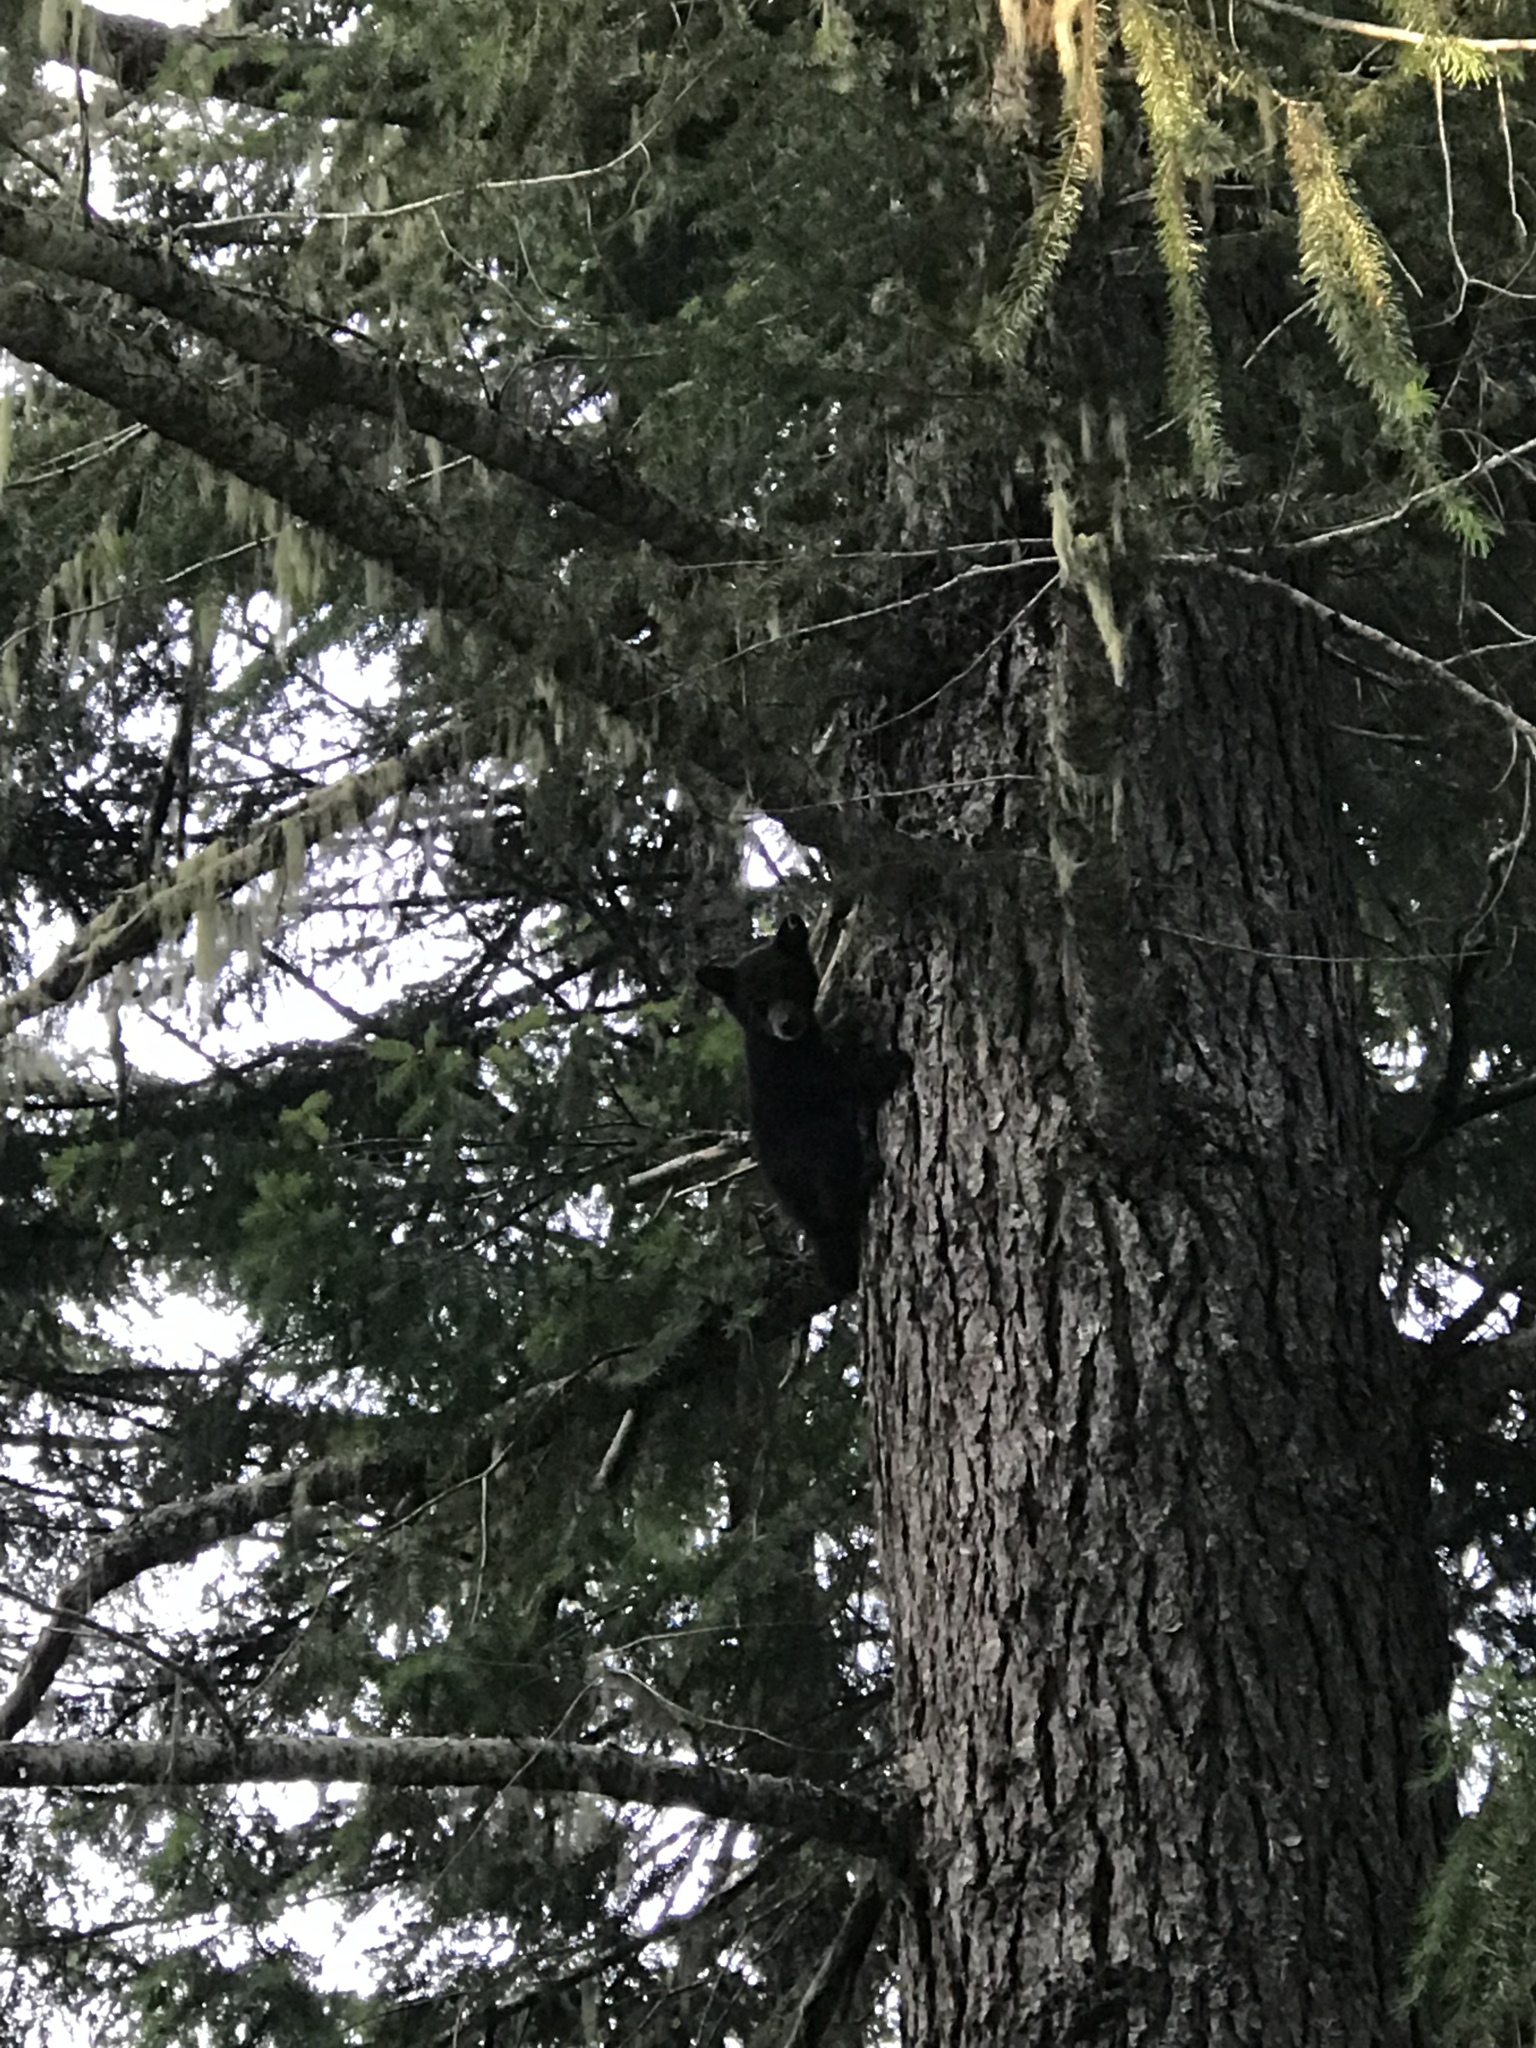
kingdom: Animalia
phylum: Chordata
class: Mammalia
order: Carnivora
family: Ursidae
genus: Ursus
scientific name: Ursus americanus
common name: American black bear
